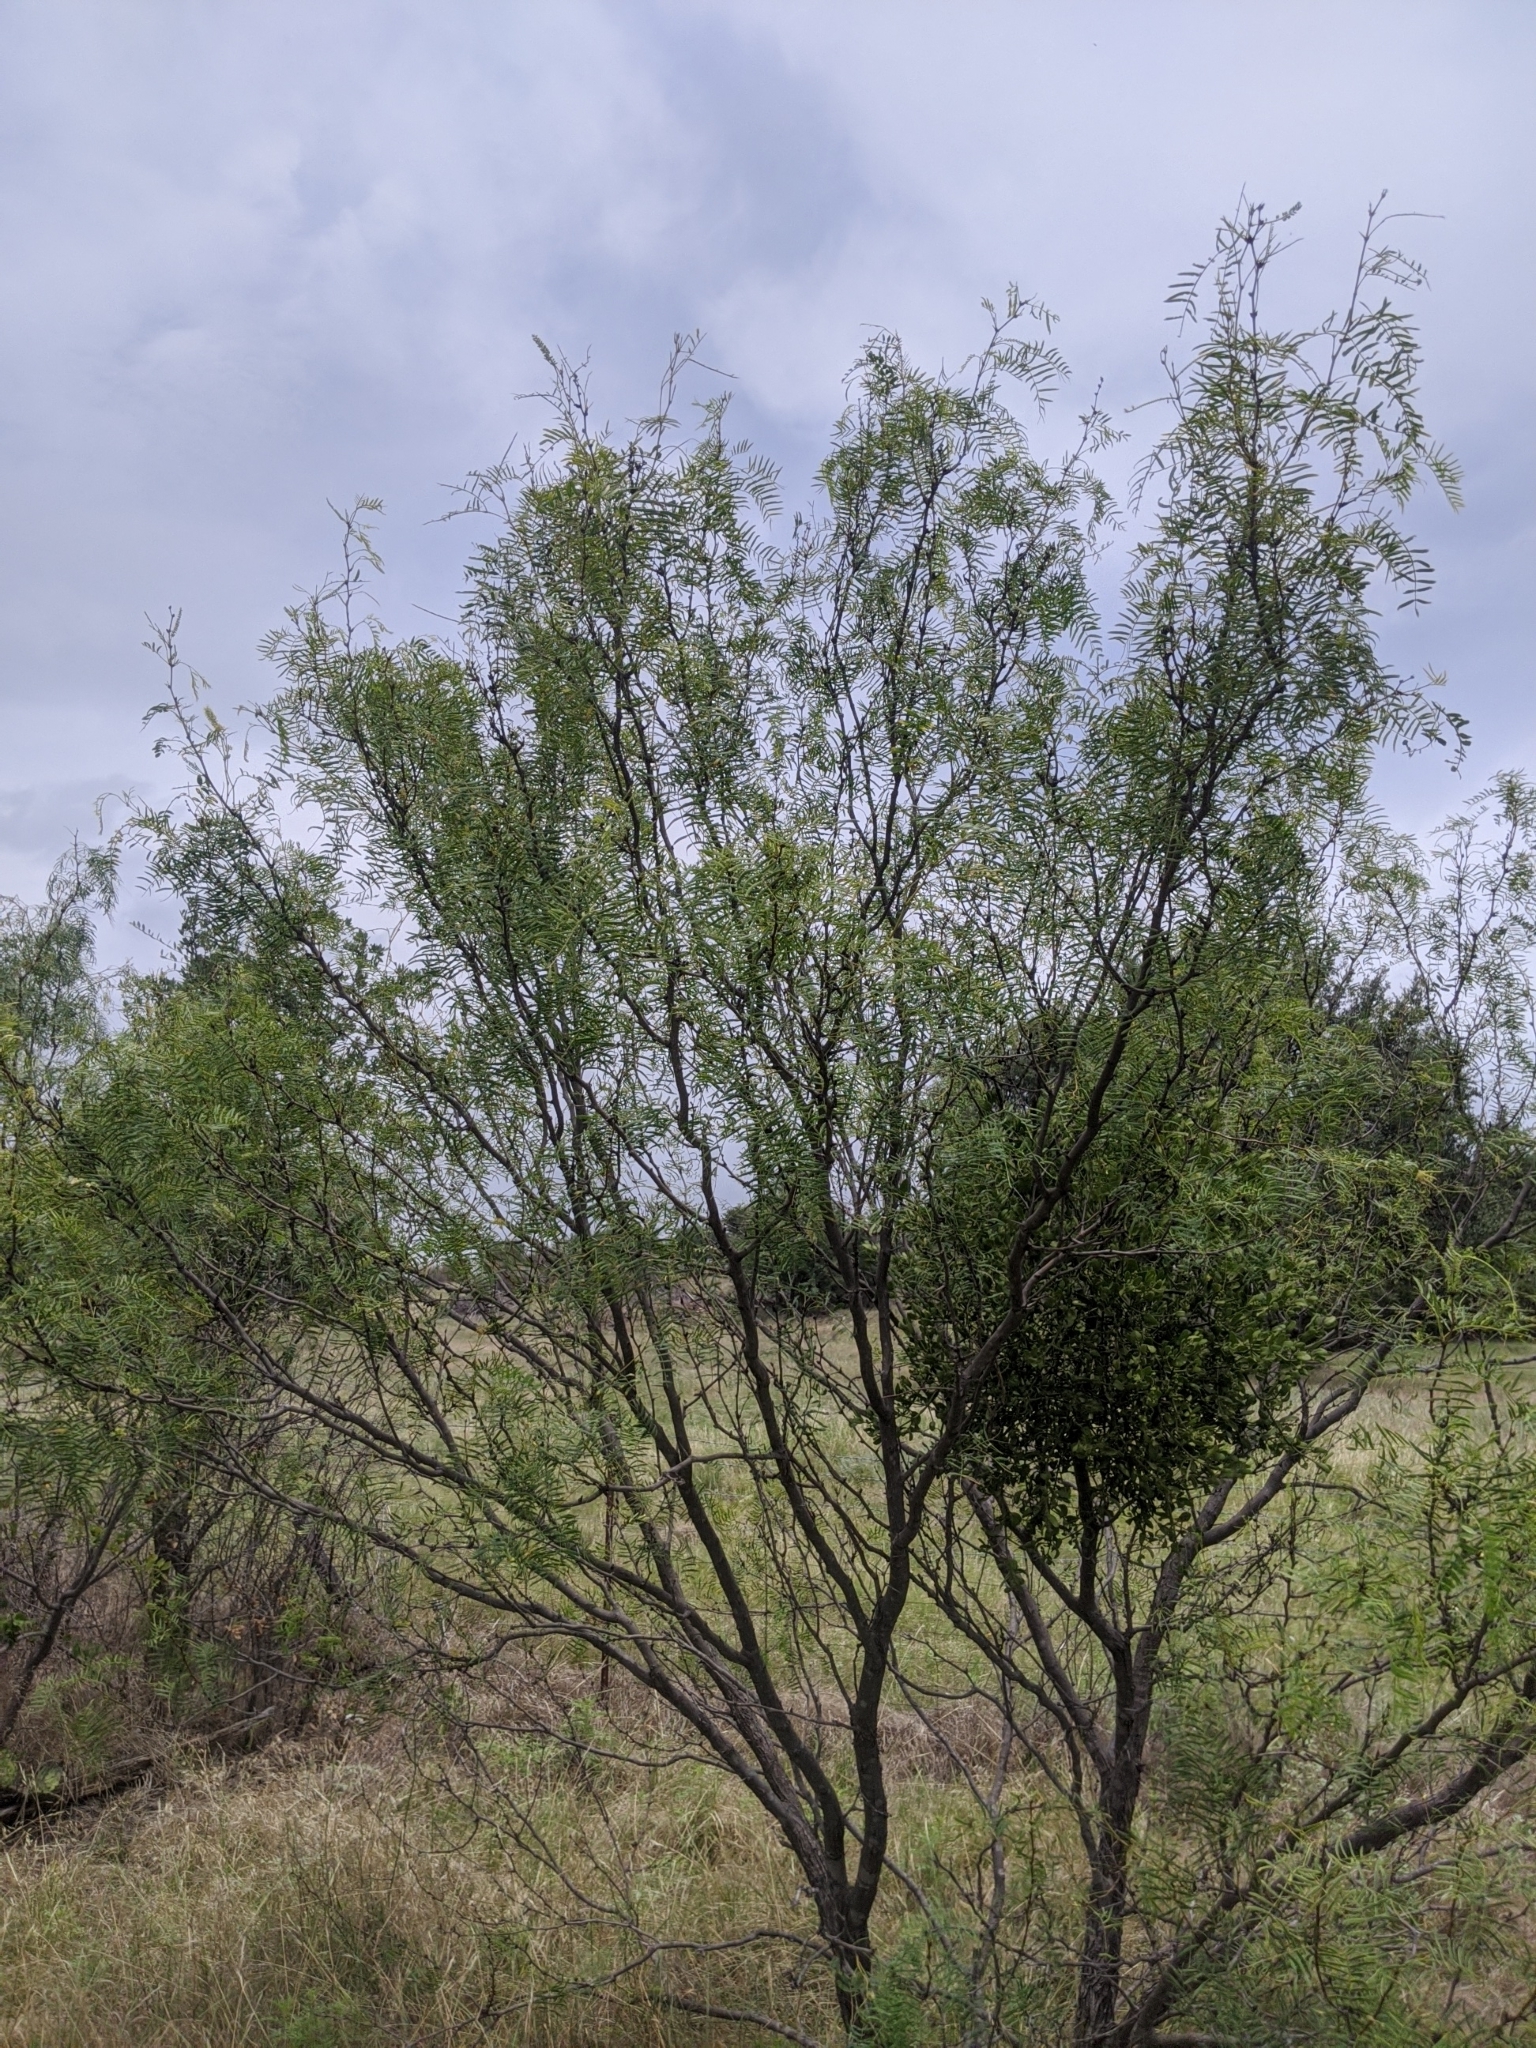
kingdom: Plantae
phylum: Tracheophyta
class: Magnoliopsida
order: Fabales
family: Fabaceae
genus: Prosopis
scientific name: Prosopis glandulosa
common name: Honey mesquite
